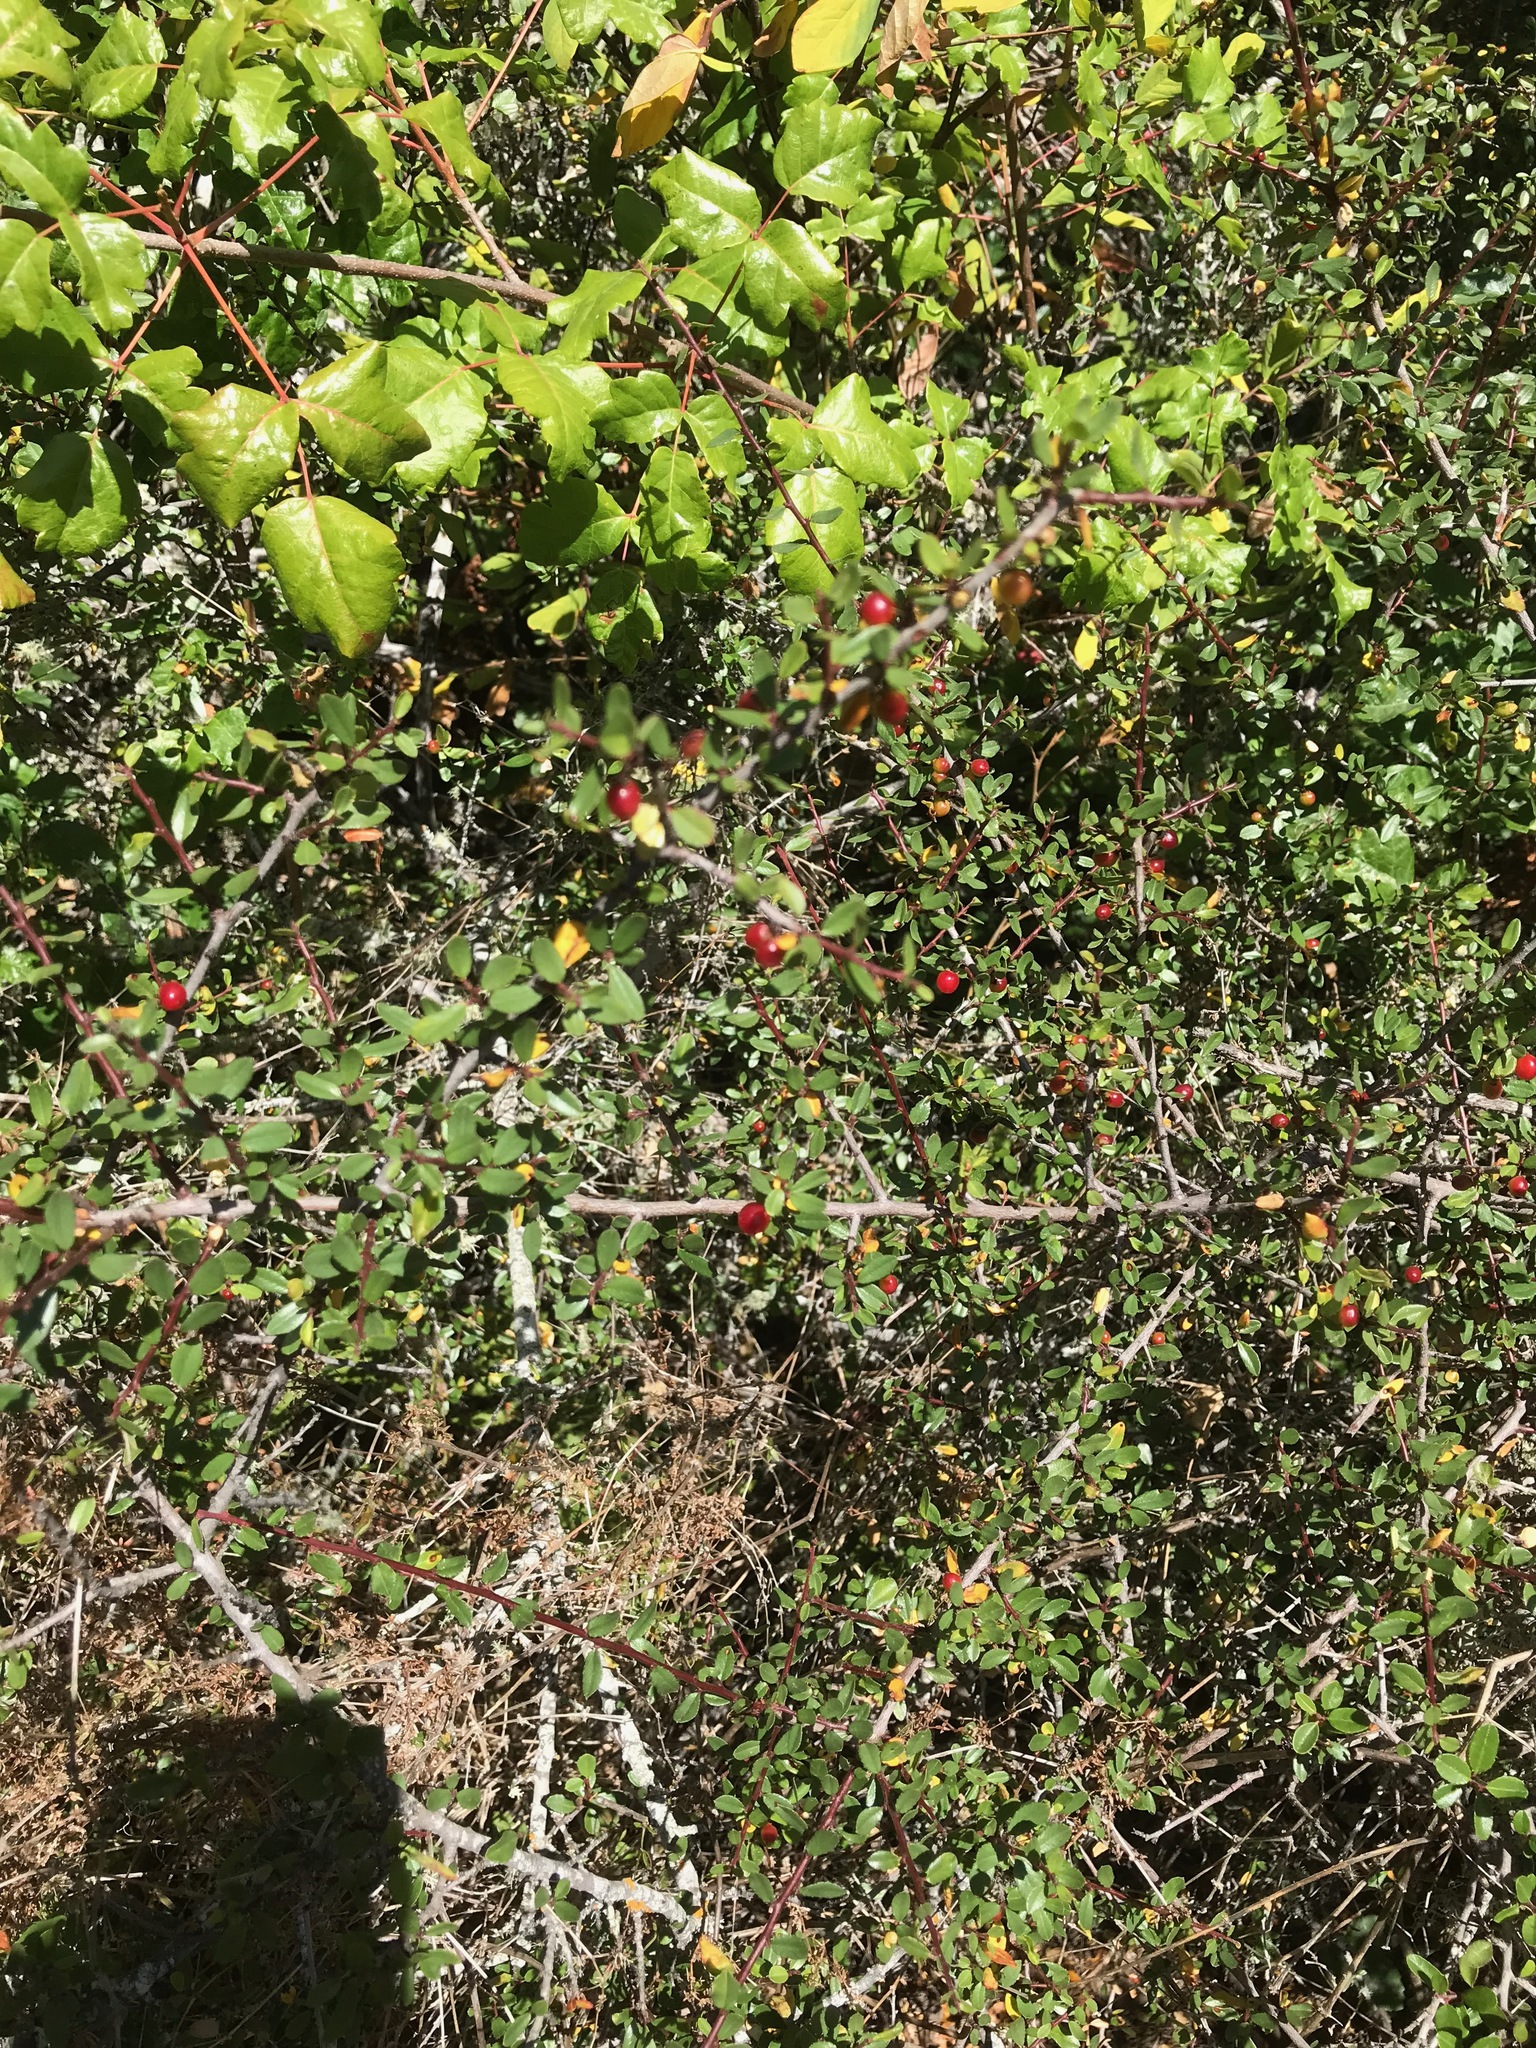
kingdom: Plantae
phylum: Tracheophyta
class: Magnoliopsida
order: Rosales
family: Rhamnaceae
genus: Endotropis
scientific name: Endotropis crocea
